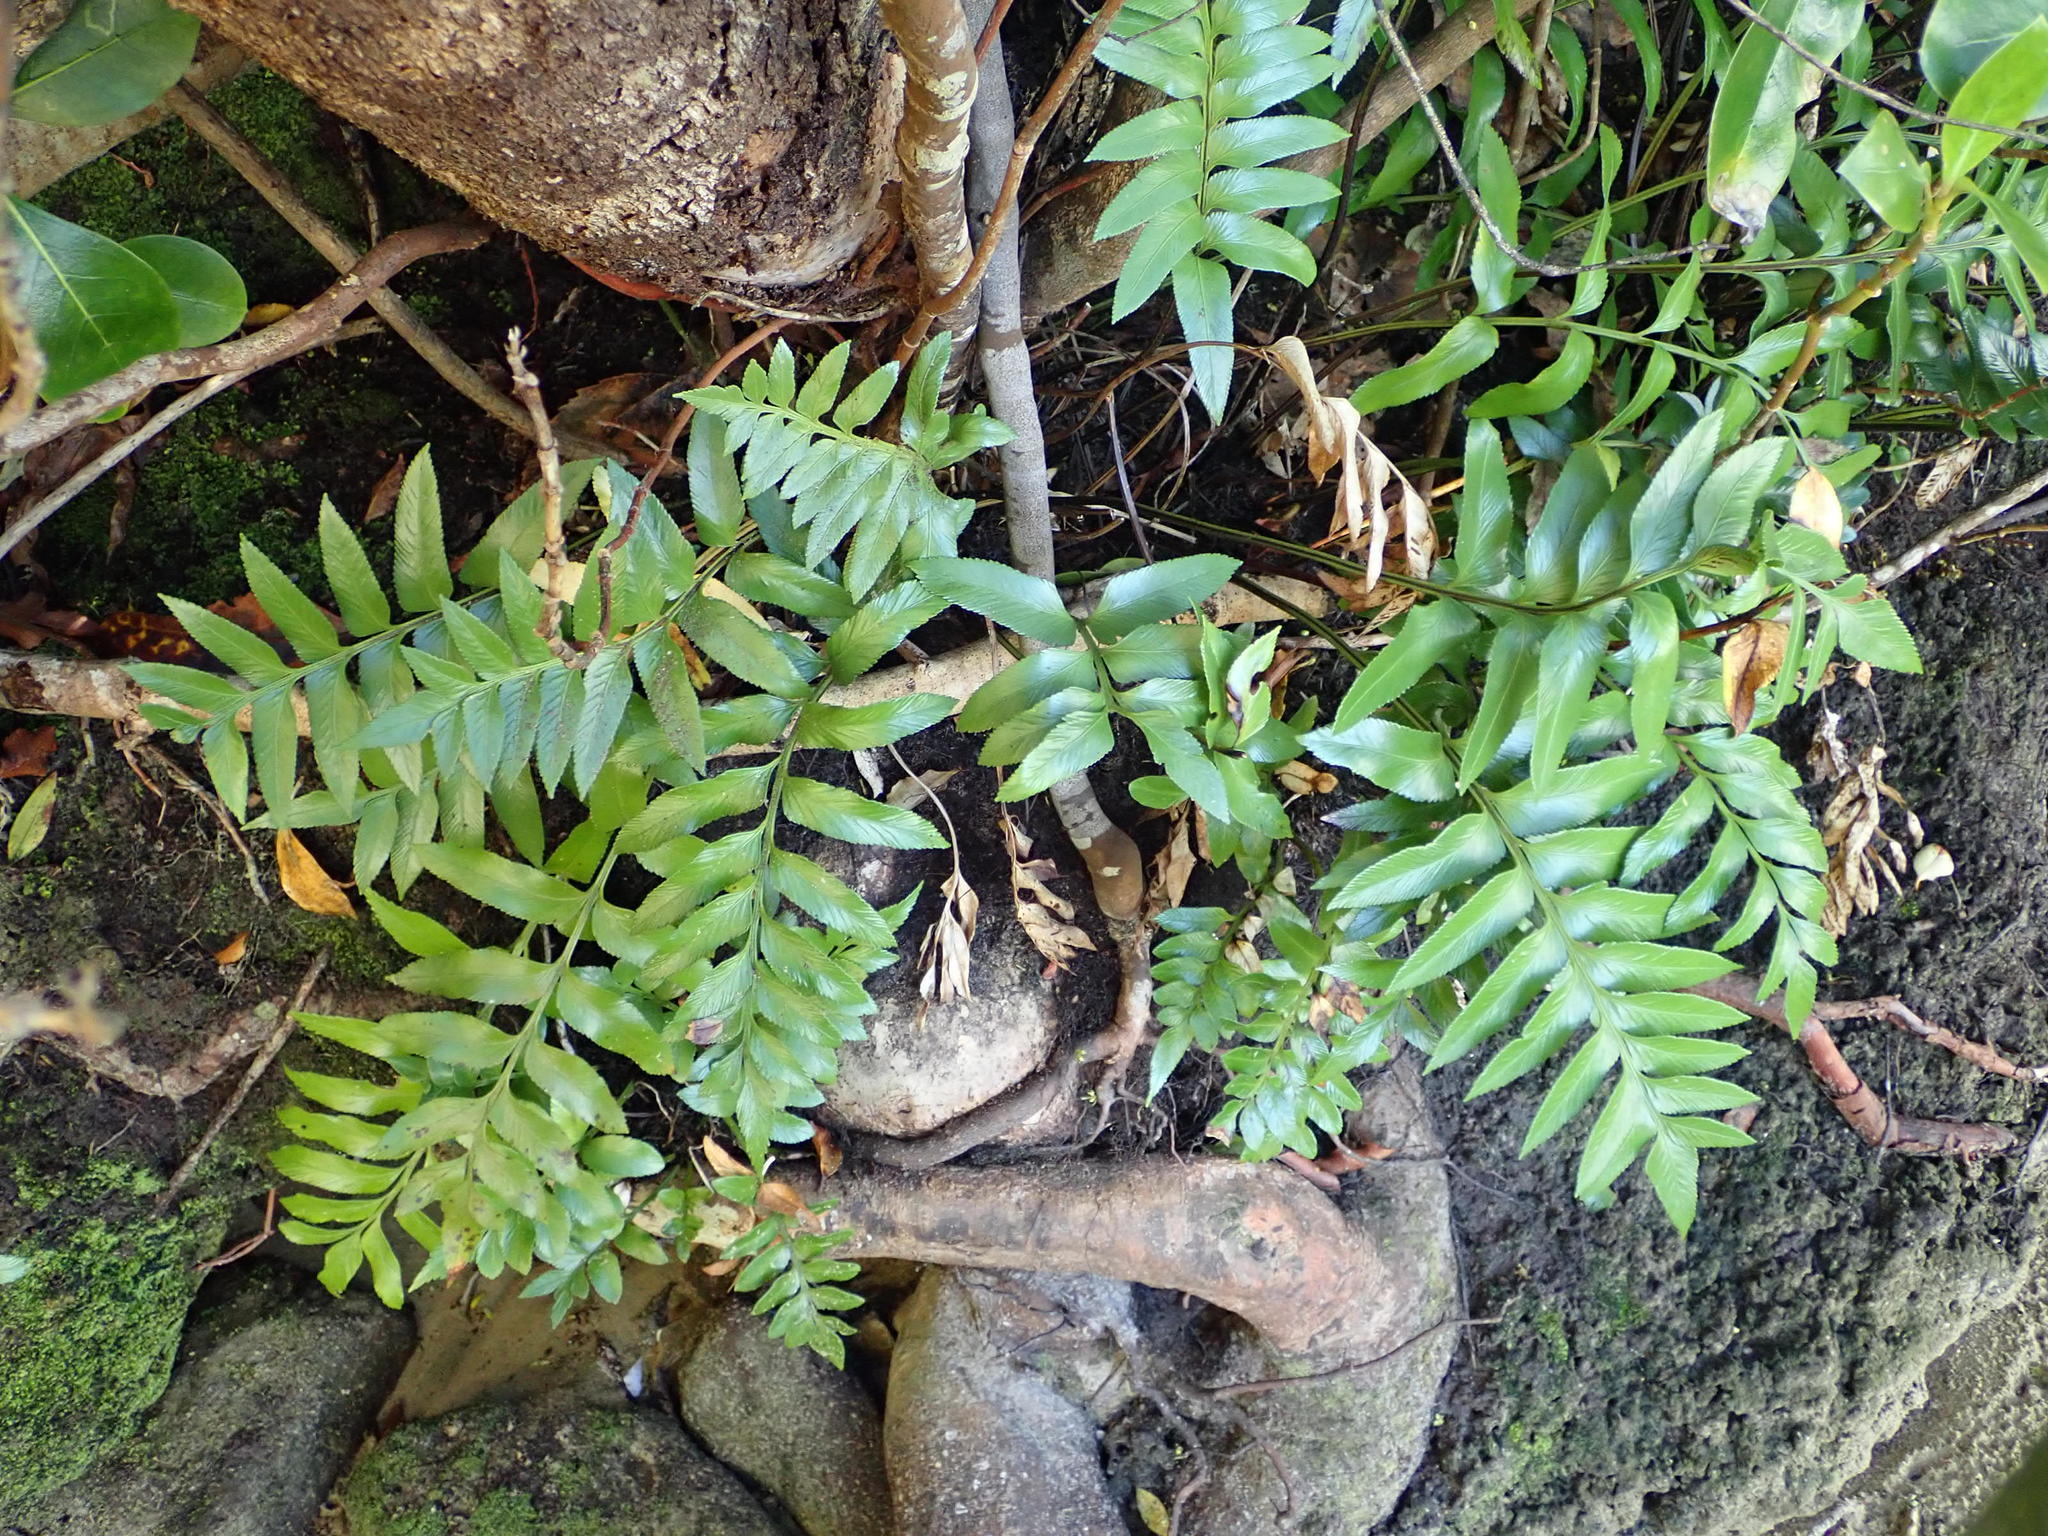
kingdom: Plantae
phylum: Tracheophyta
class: Polypodiopsida
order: Polypodiales
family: Aspleniaceae
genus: Asplenium
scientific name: Asplenium obtusatum
